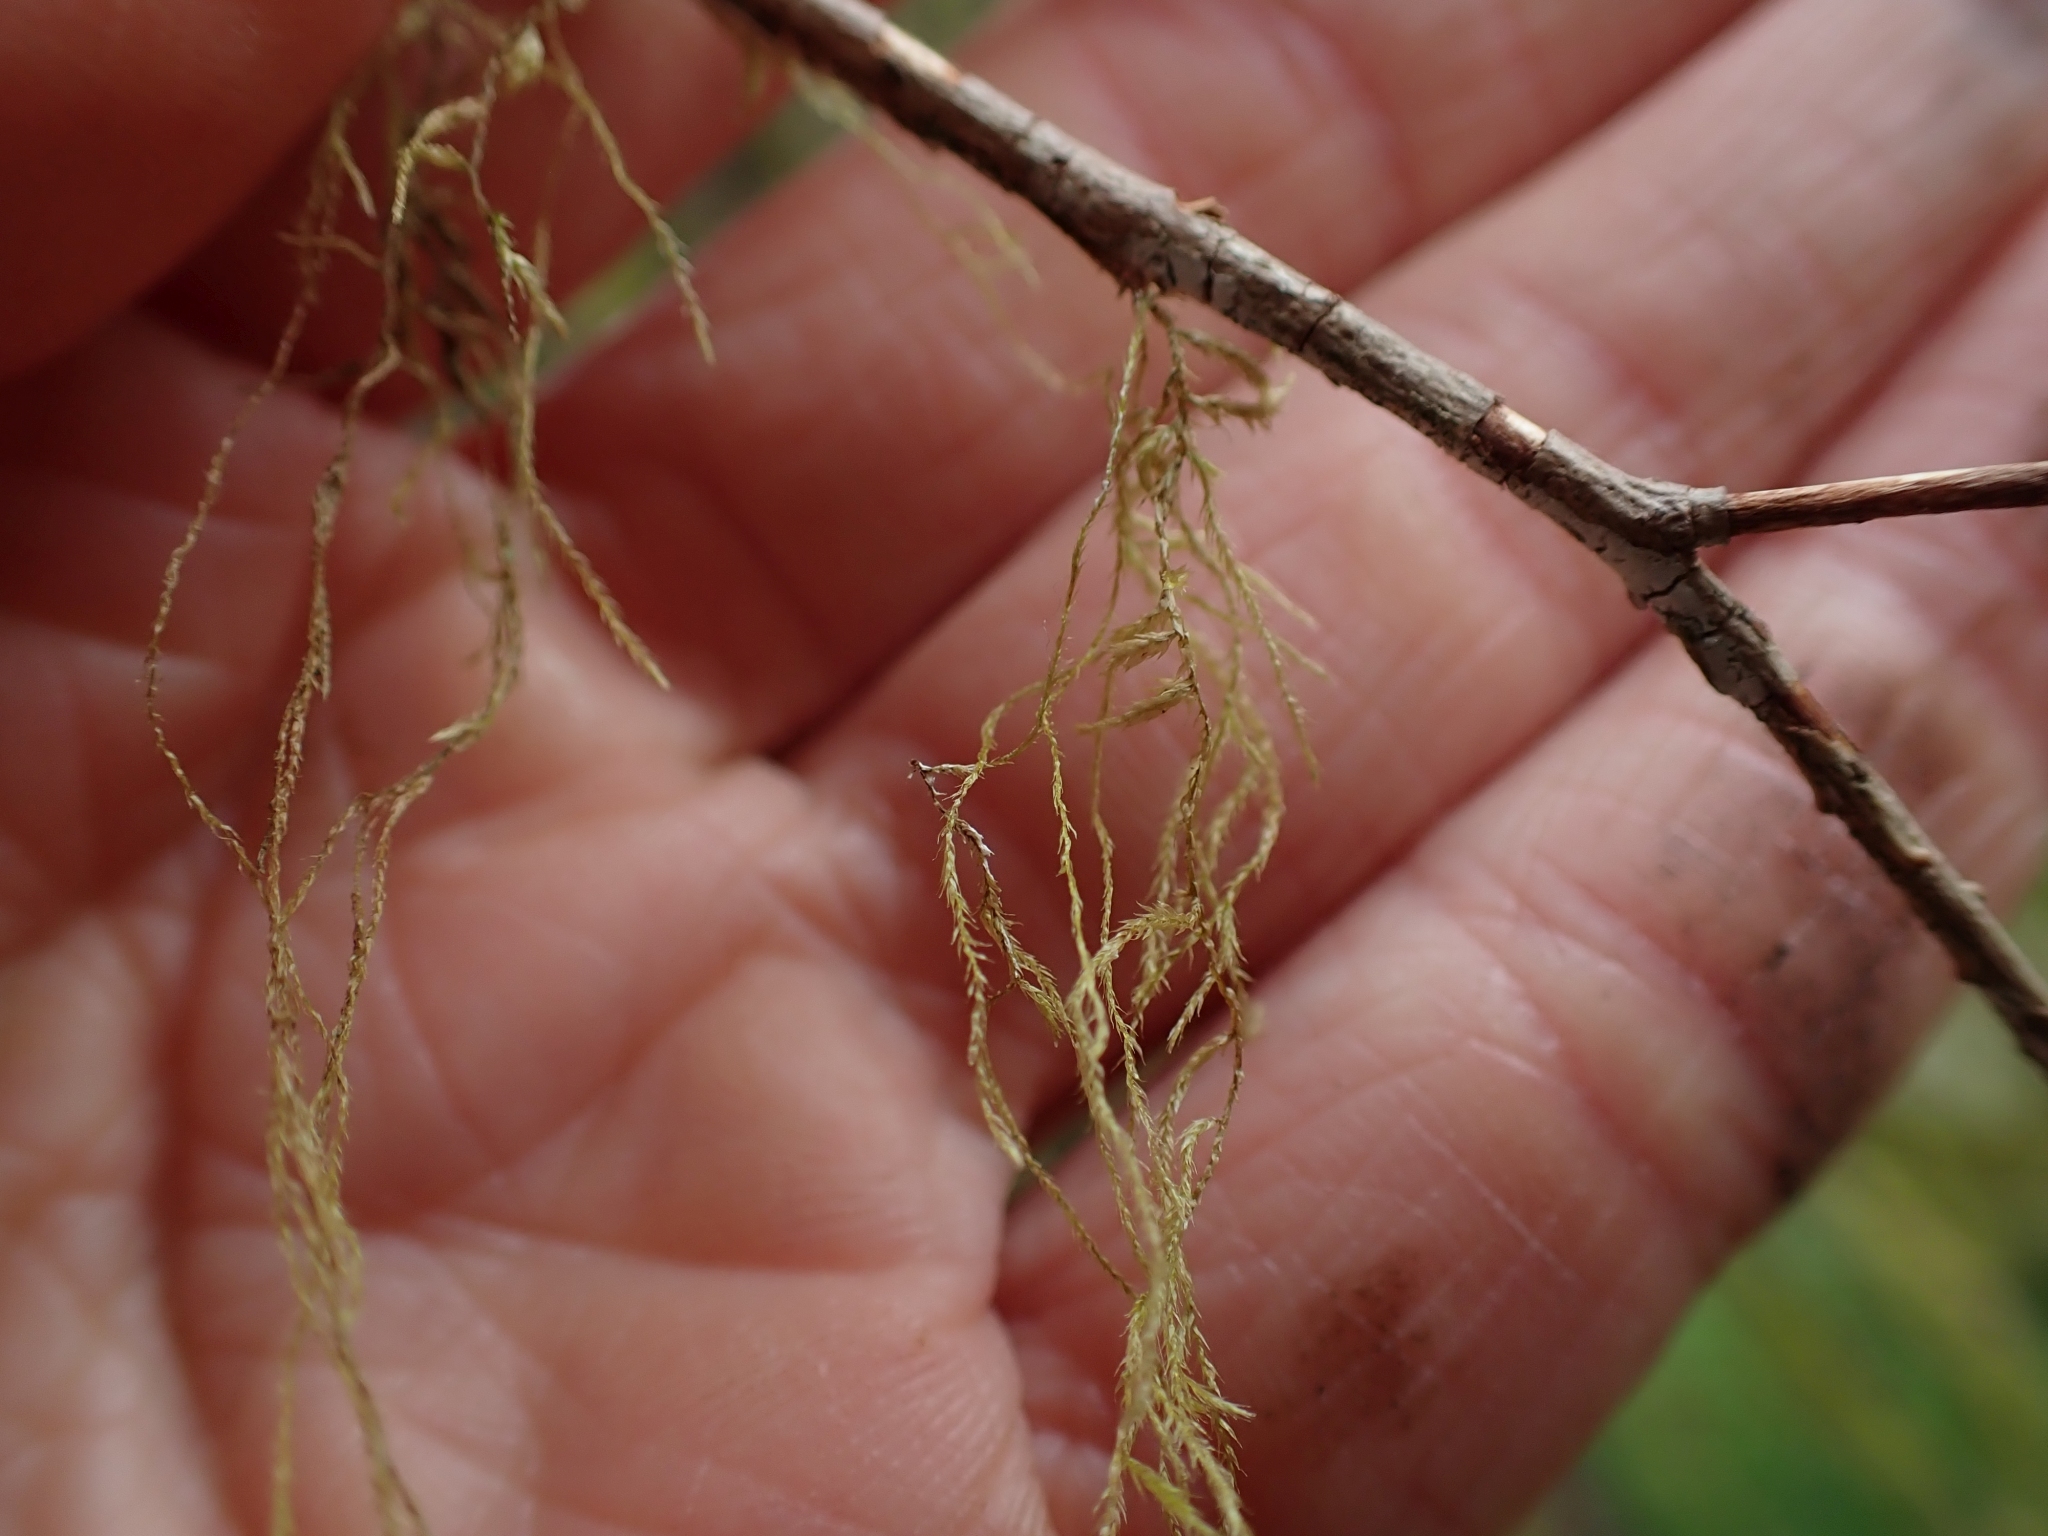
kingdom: Plantae
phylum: Bryophyta
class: Bryopsida
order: Hypnales
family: Lembophyllaceae
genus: Pseudisothecium
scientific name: Pseudisothecium stoloniferum
